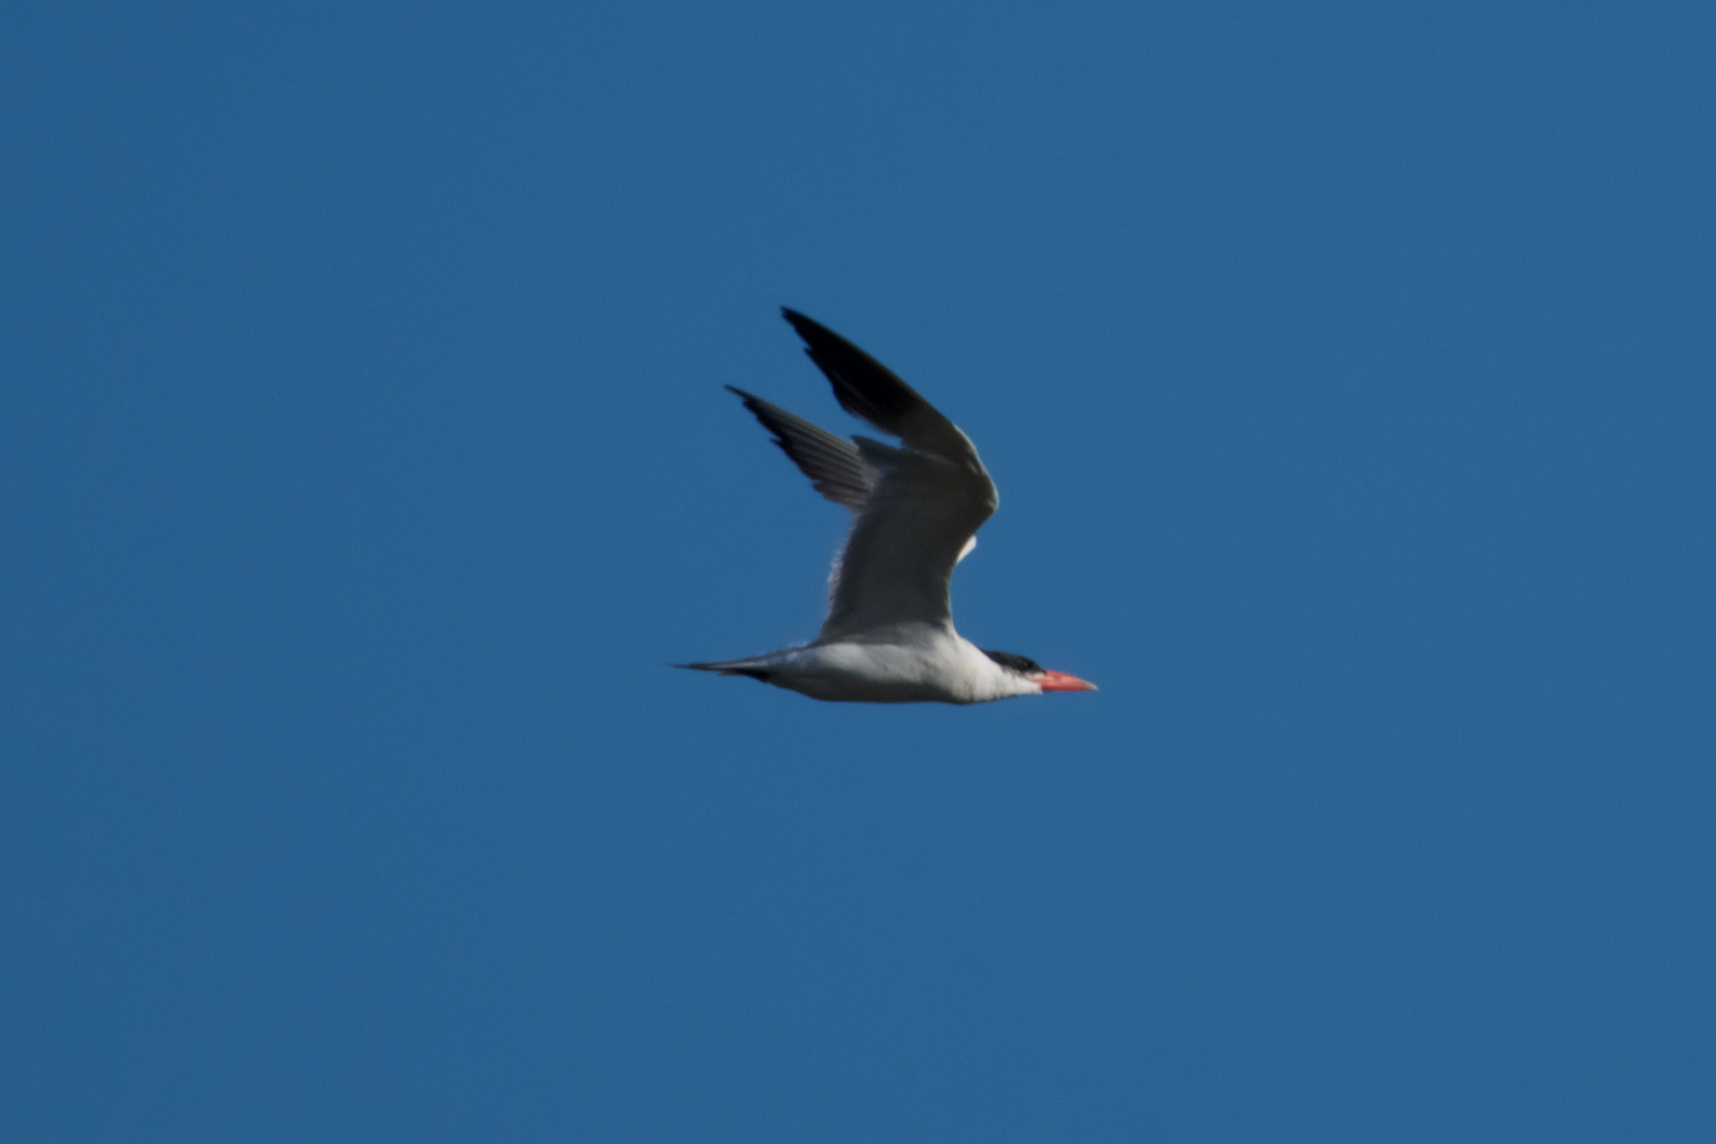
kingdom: Animalia
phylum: Chordata
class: Aves
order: Charadriiformes
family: Laridae
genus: Hydroprogne
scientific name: Hydroprogne caspia
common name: Caspian tern
